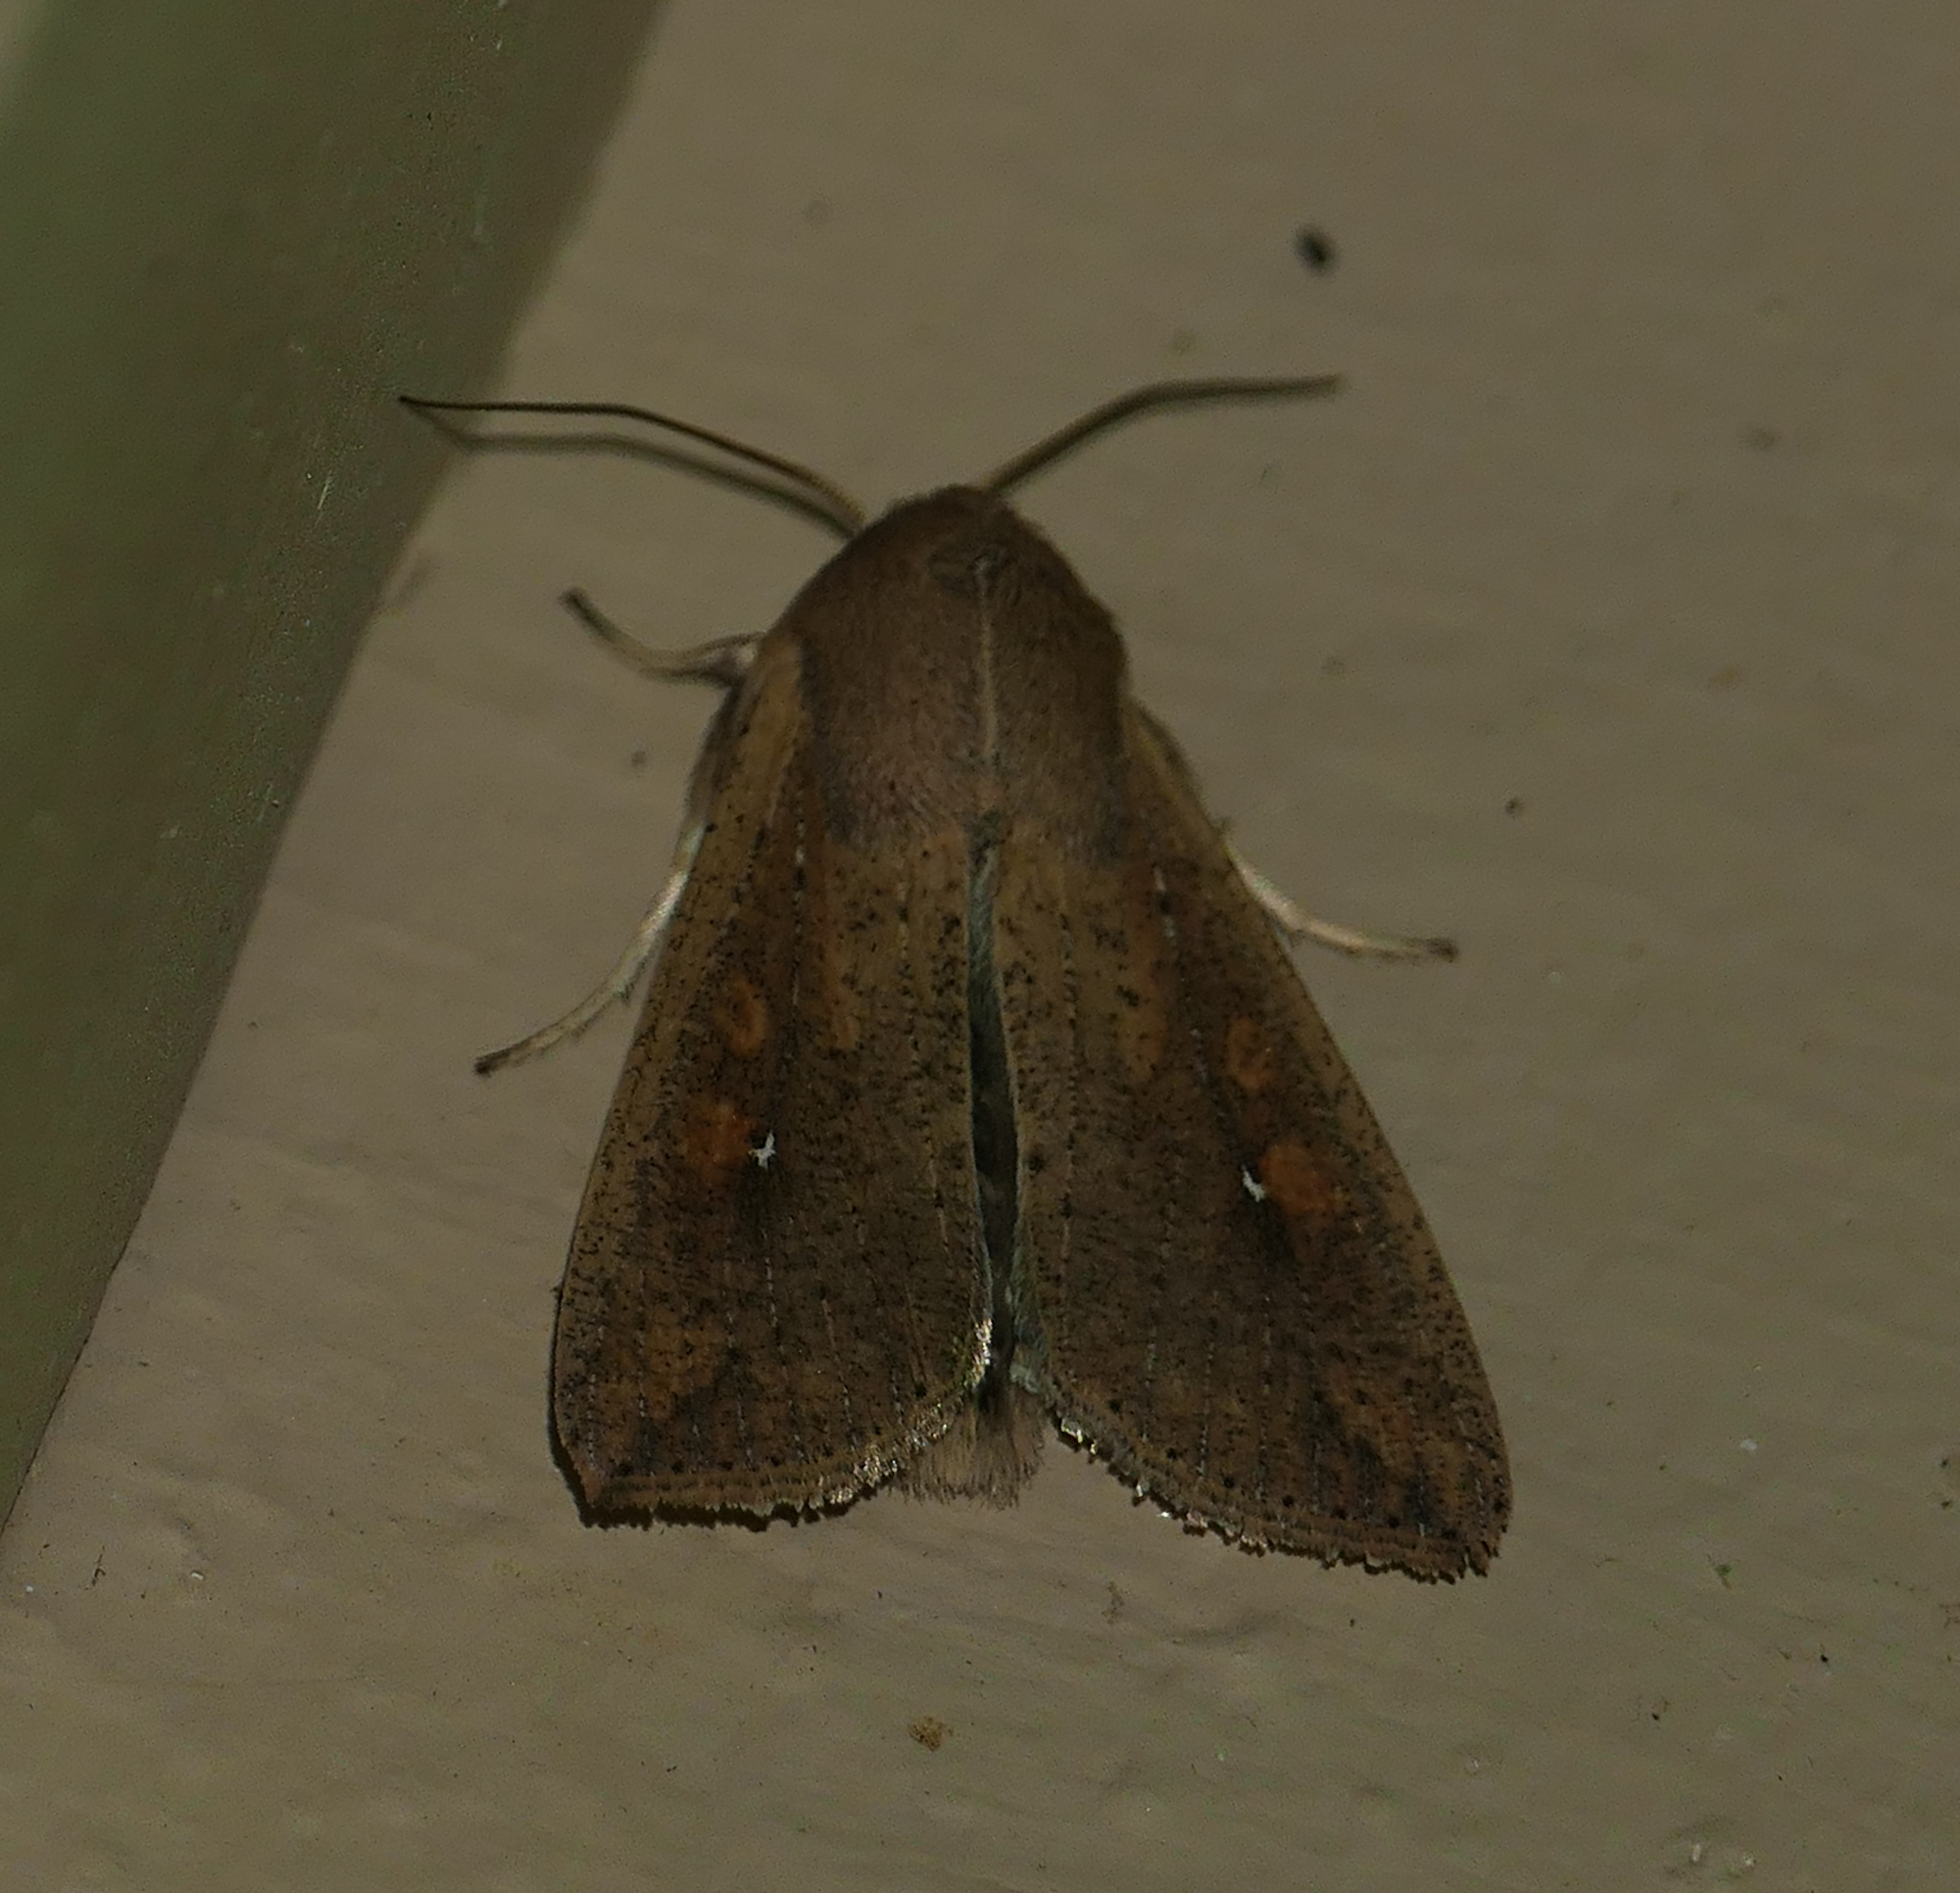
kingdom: Animalia
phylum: Arthropoda
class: Insecta
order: Lepidoptera
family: Noctuidae
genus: Mythimna
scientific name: Mythimna unipuncta
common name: White-speck
